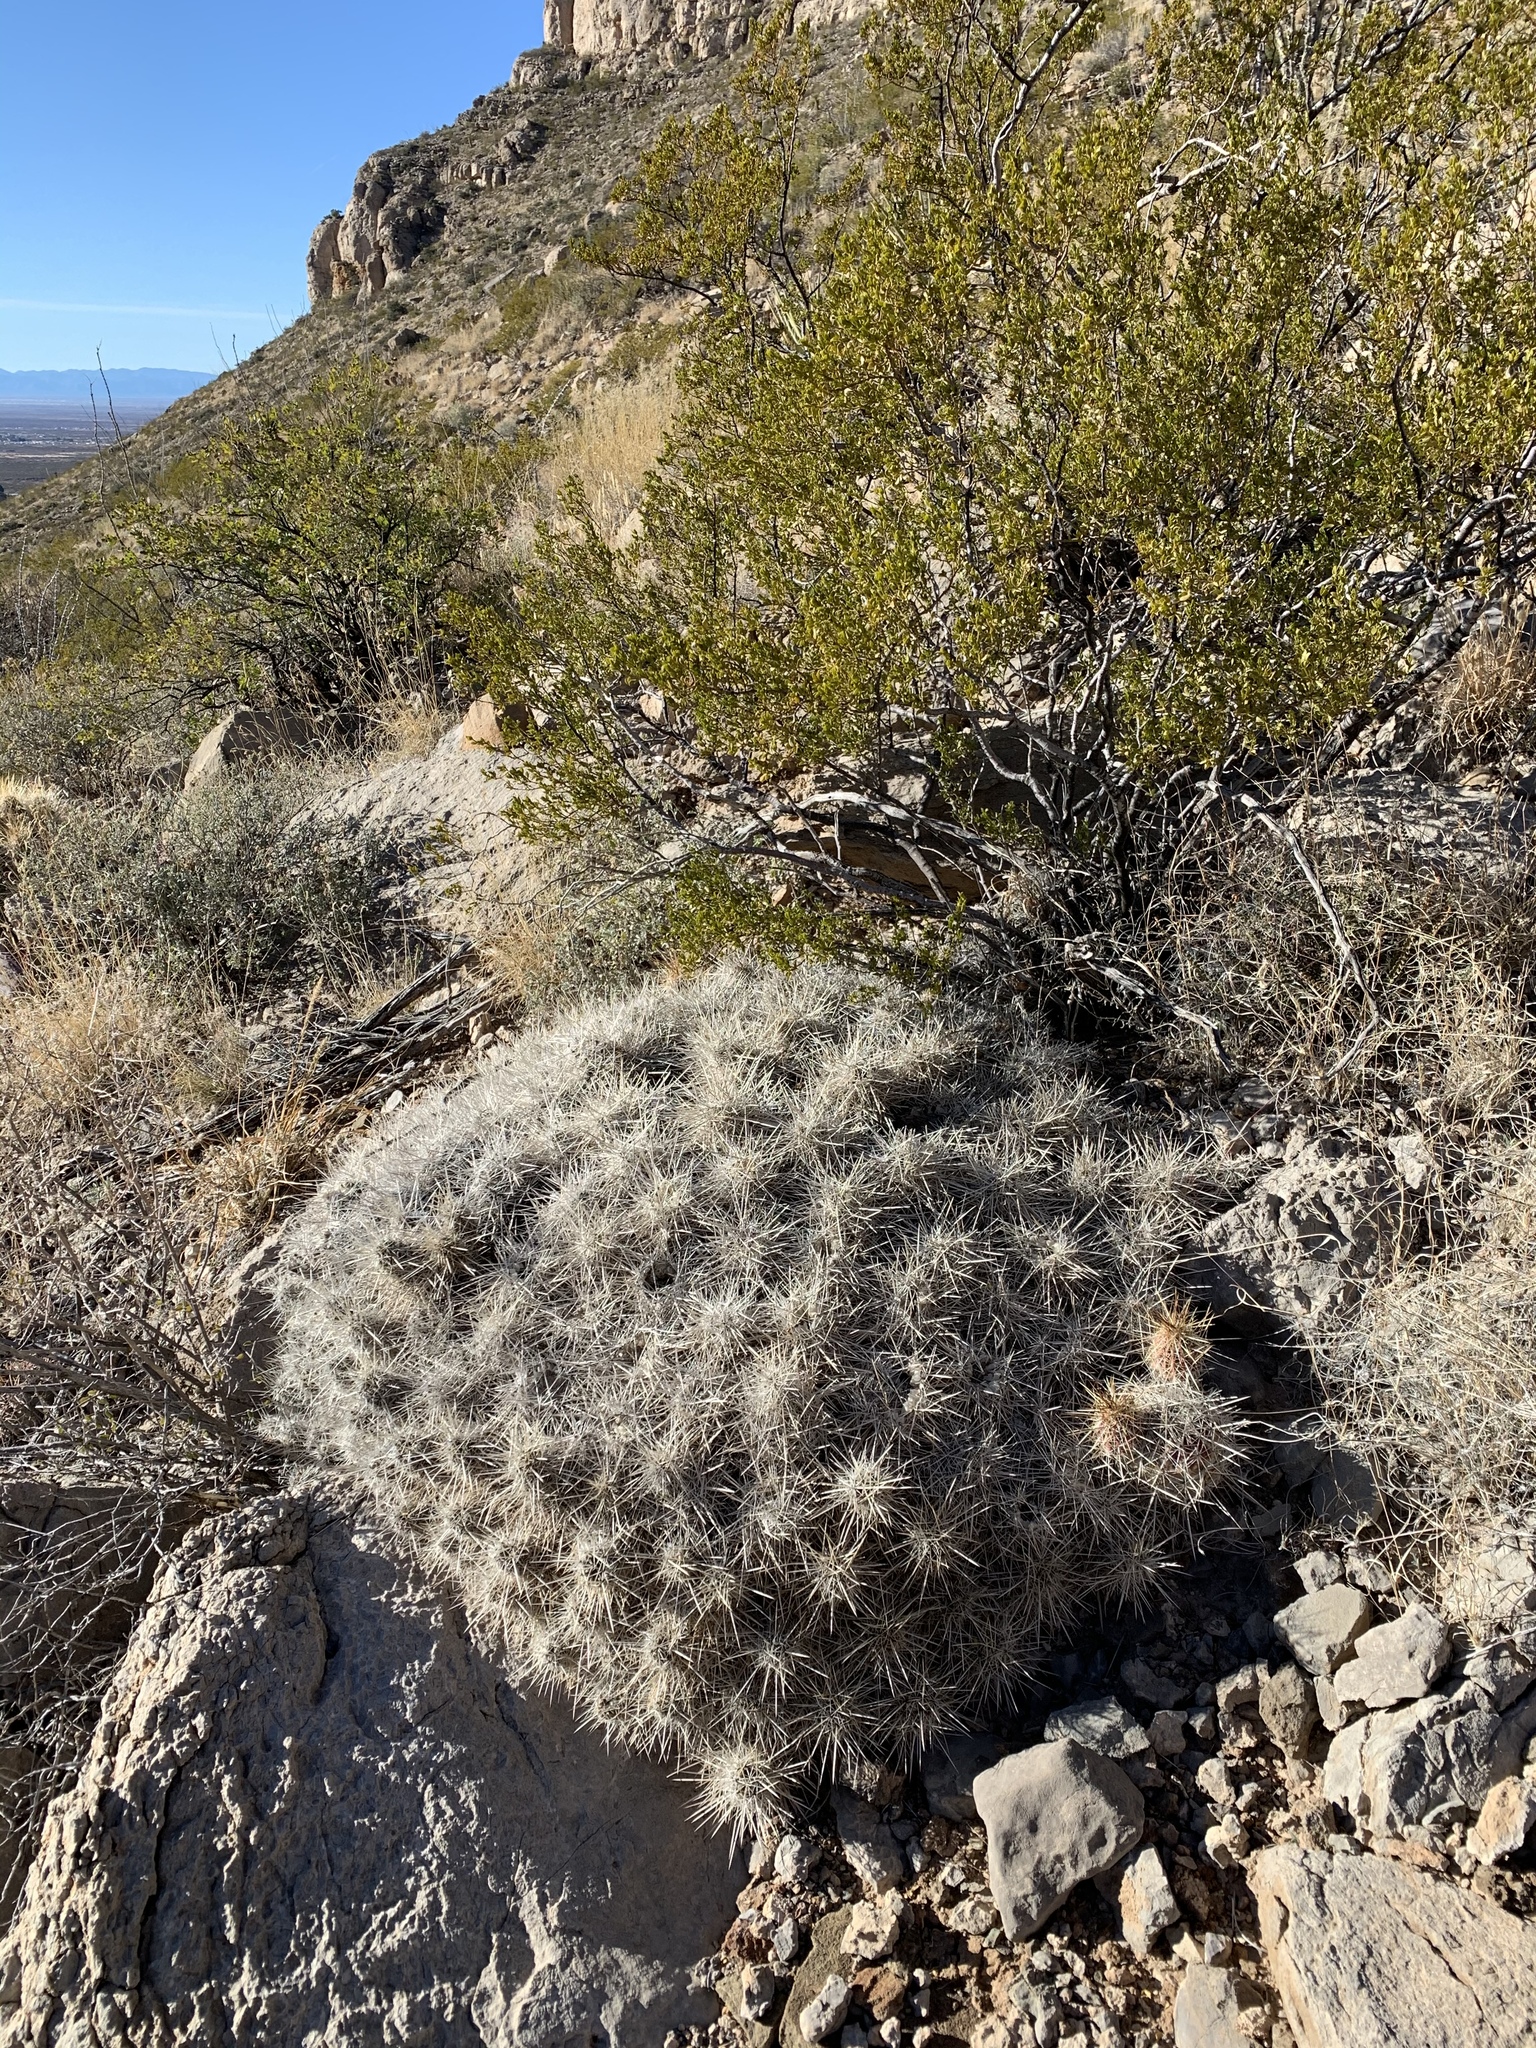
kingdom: Plantae
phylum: Tracheophyta
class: Magnoliopsida
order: Caryophyllales
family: Cactaceae
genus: Echinocereus
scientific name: Echinocereus stramineus
